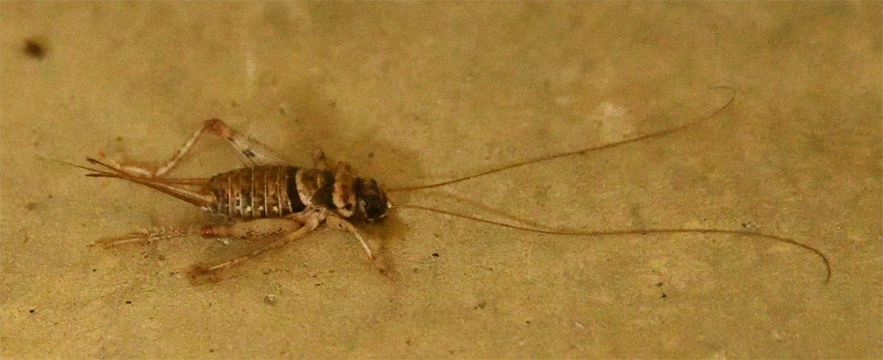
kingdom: Animalia
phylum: Arthropoda
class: Insecta
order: Orthoptera
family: Gryllidae
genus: Gryllodes
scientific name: Gryllodes sigillatus
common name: Tropical house cricket
